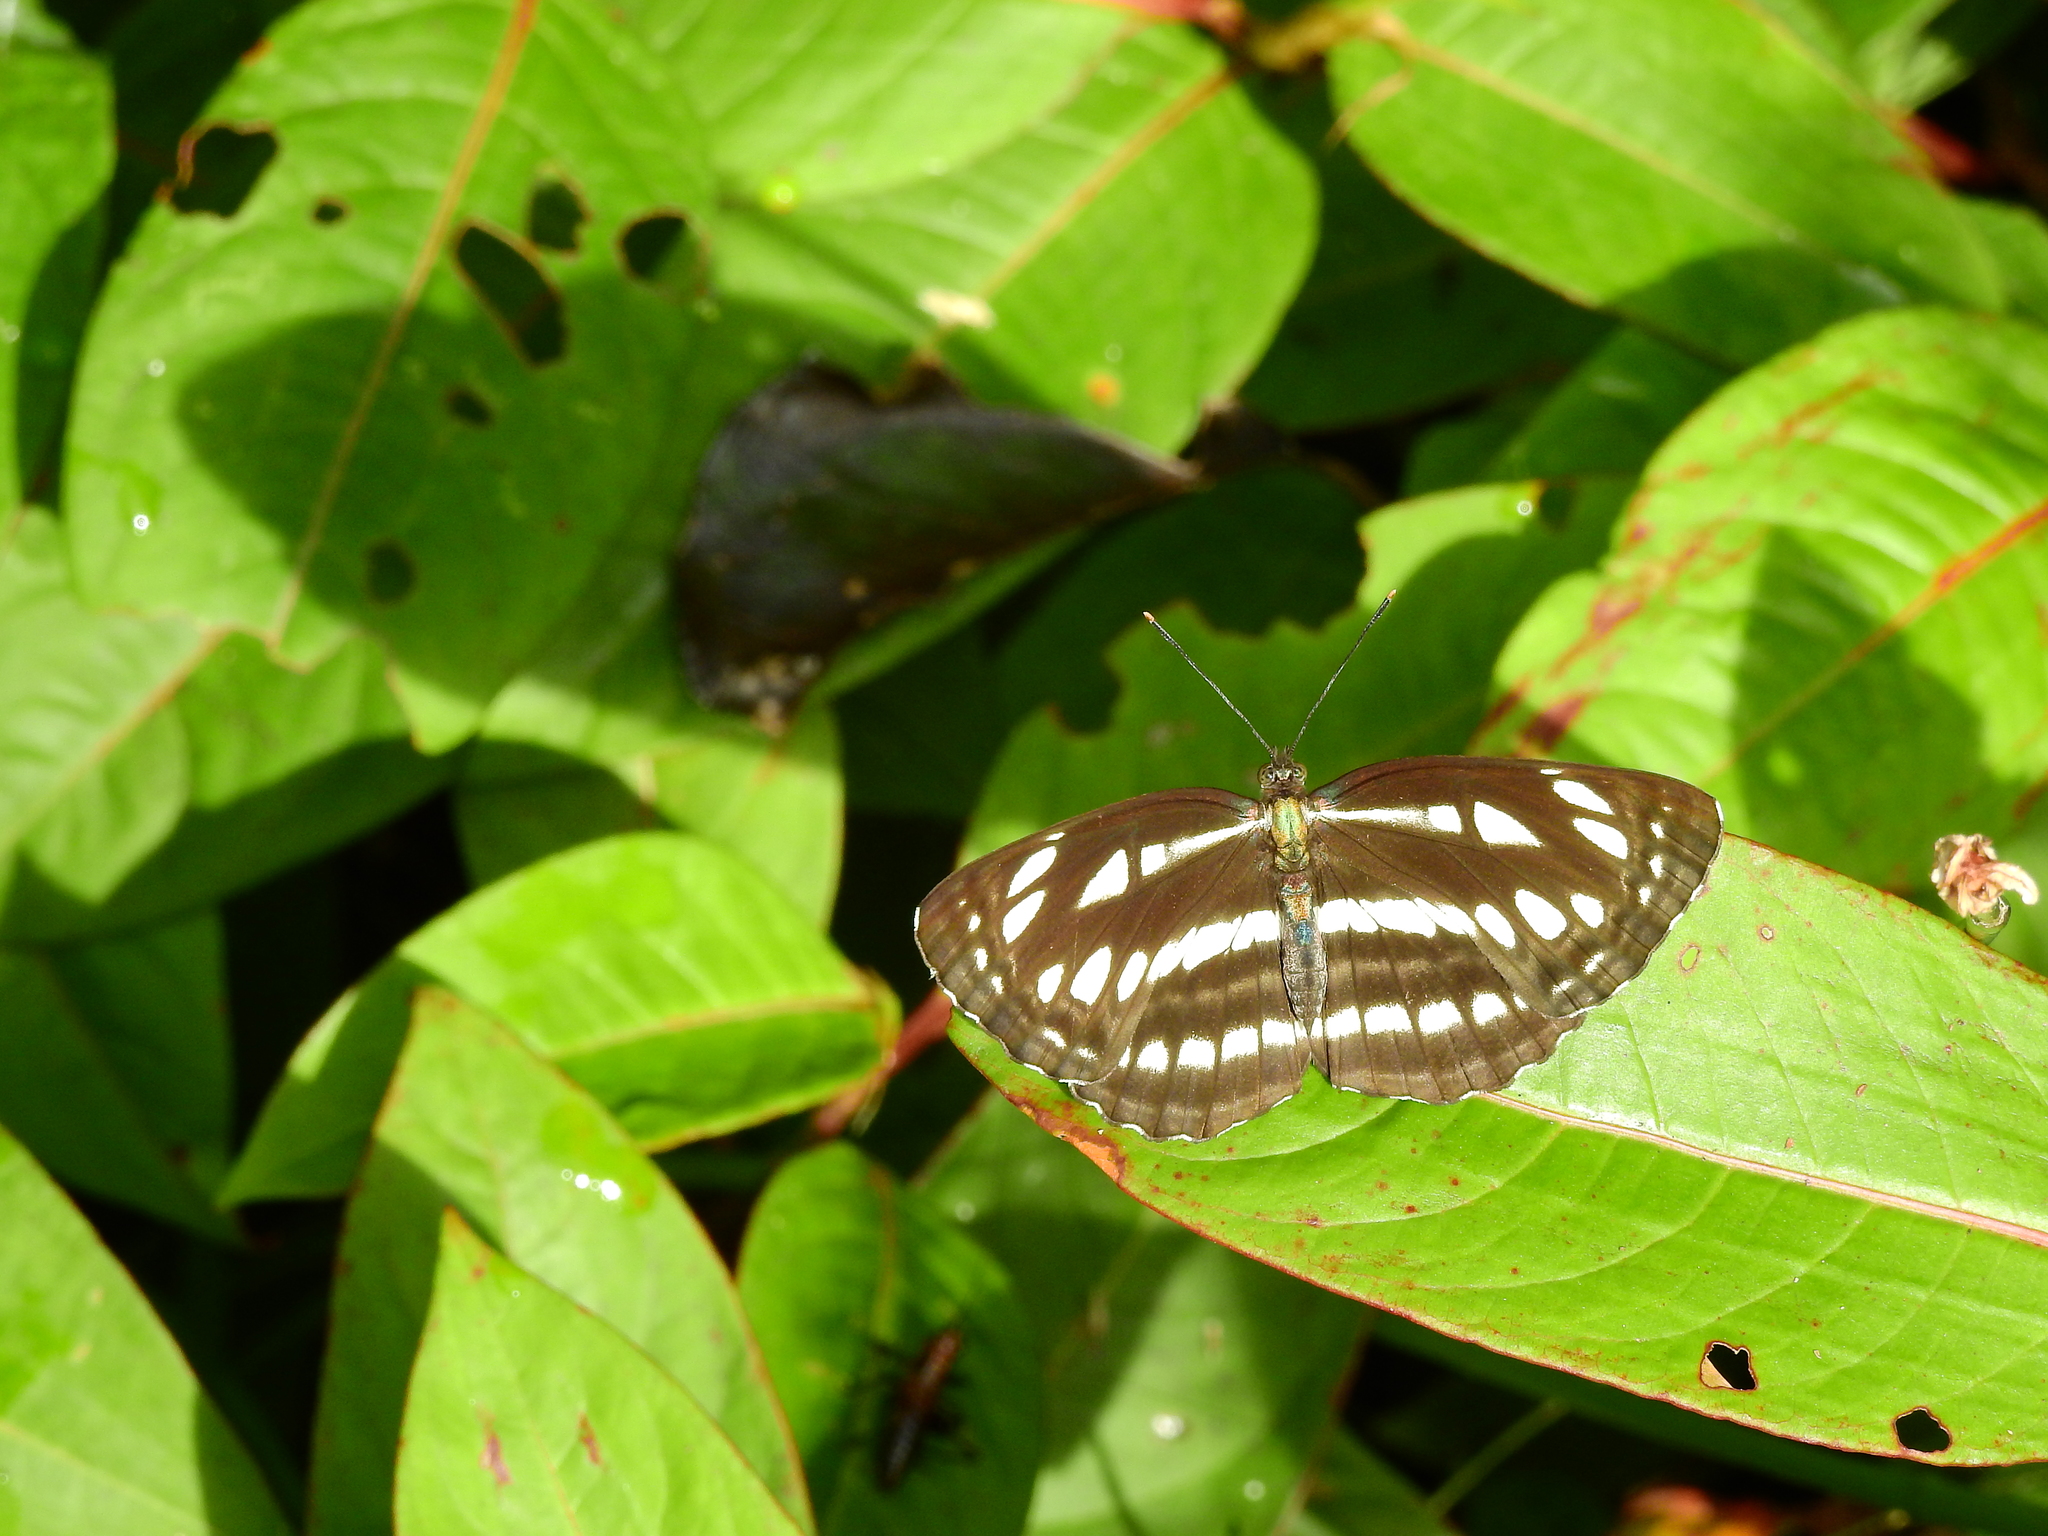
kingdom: Animalia
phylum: Arthropoda
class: Insecta
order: Lepidoptera
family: Nymphalidae
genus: Neptis
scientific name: Neptis hylas
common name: Common sailer
